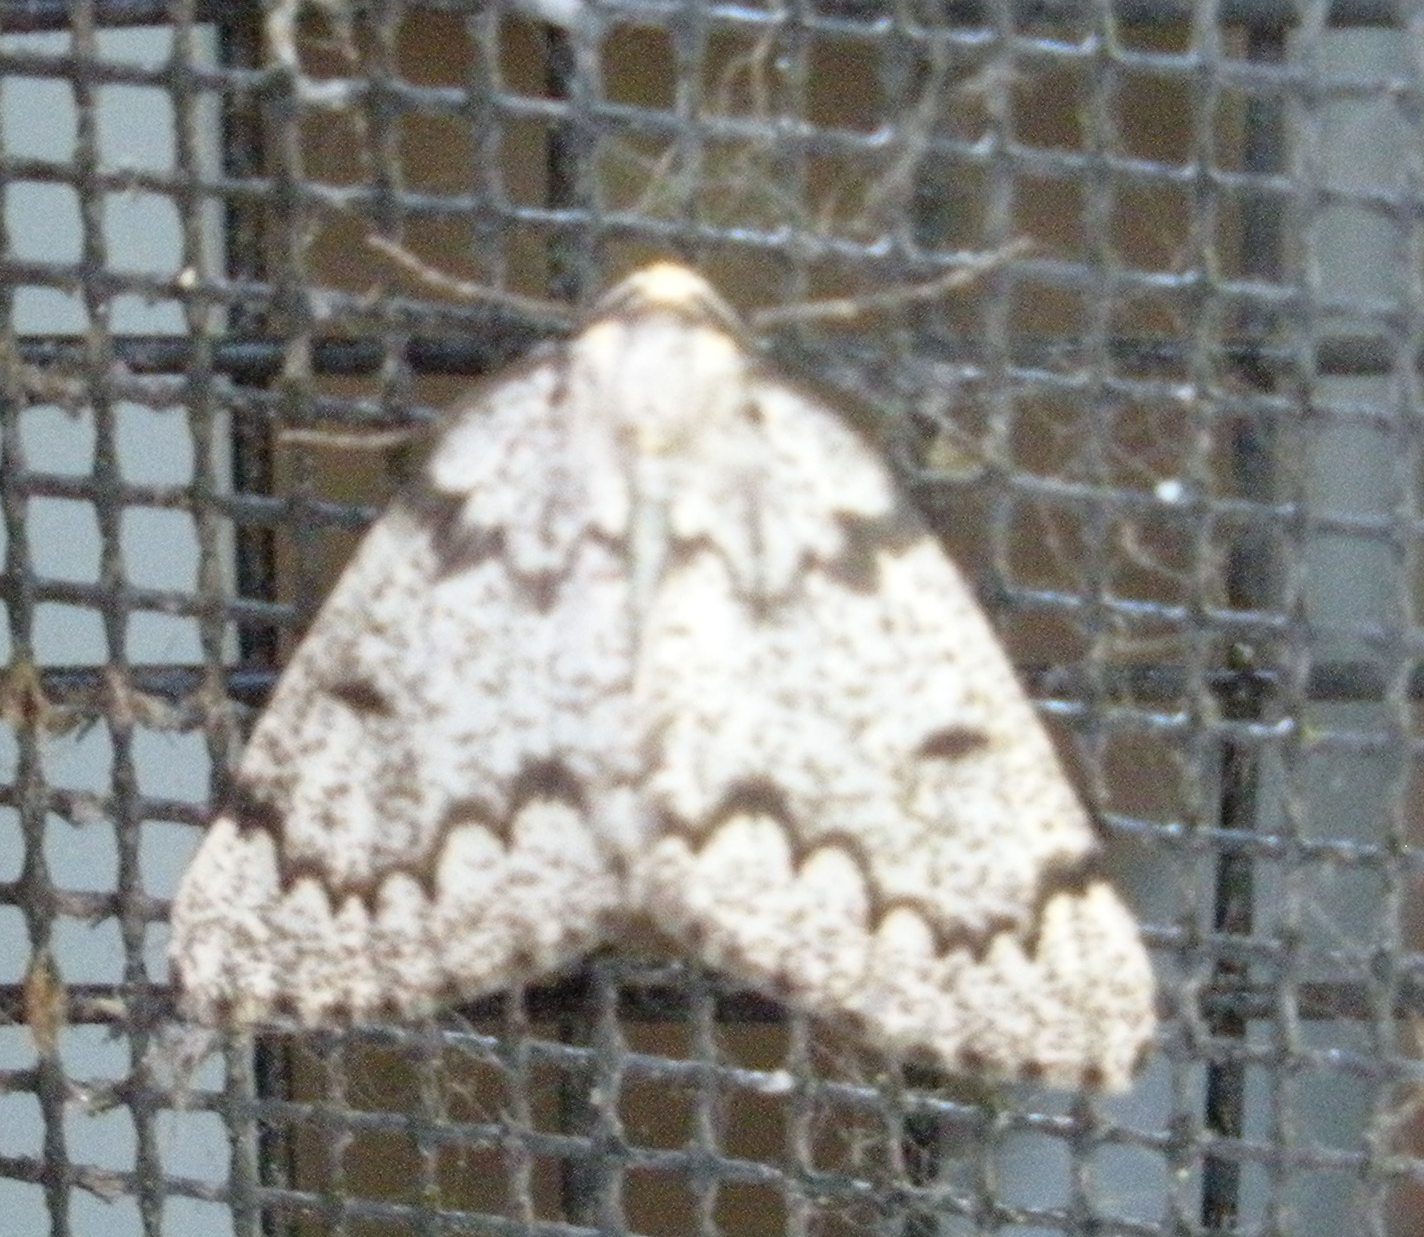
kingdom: Animalia
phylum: Arthropoda
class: Insecta
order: Lepidoptera
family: Geometridae
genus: Nepytia
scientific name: Nepytia canosaria
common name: False hemlock looper
